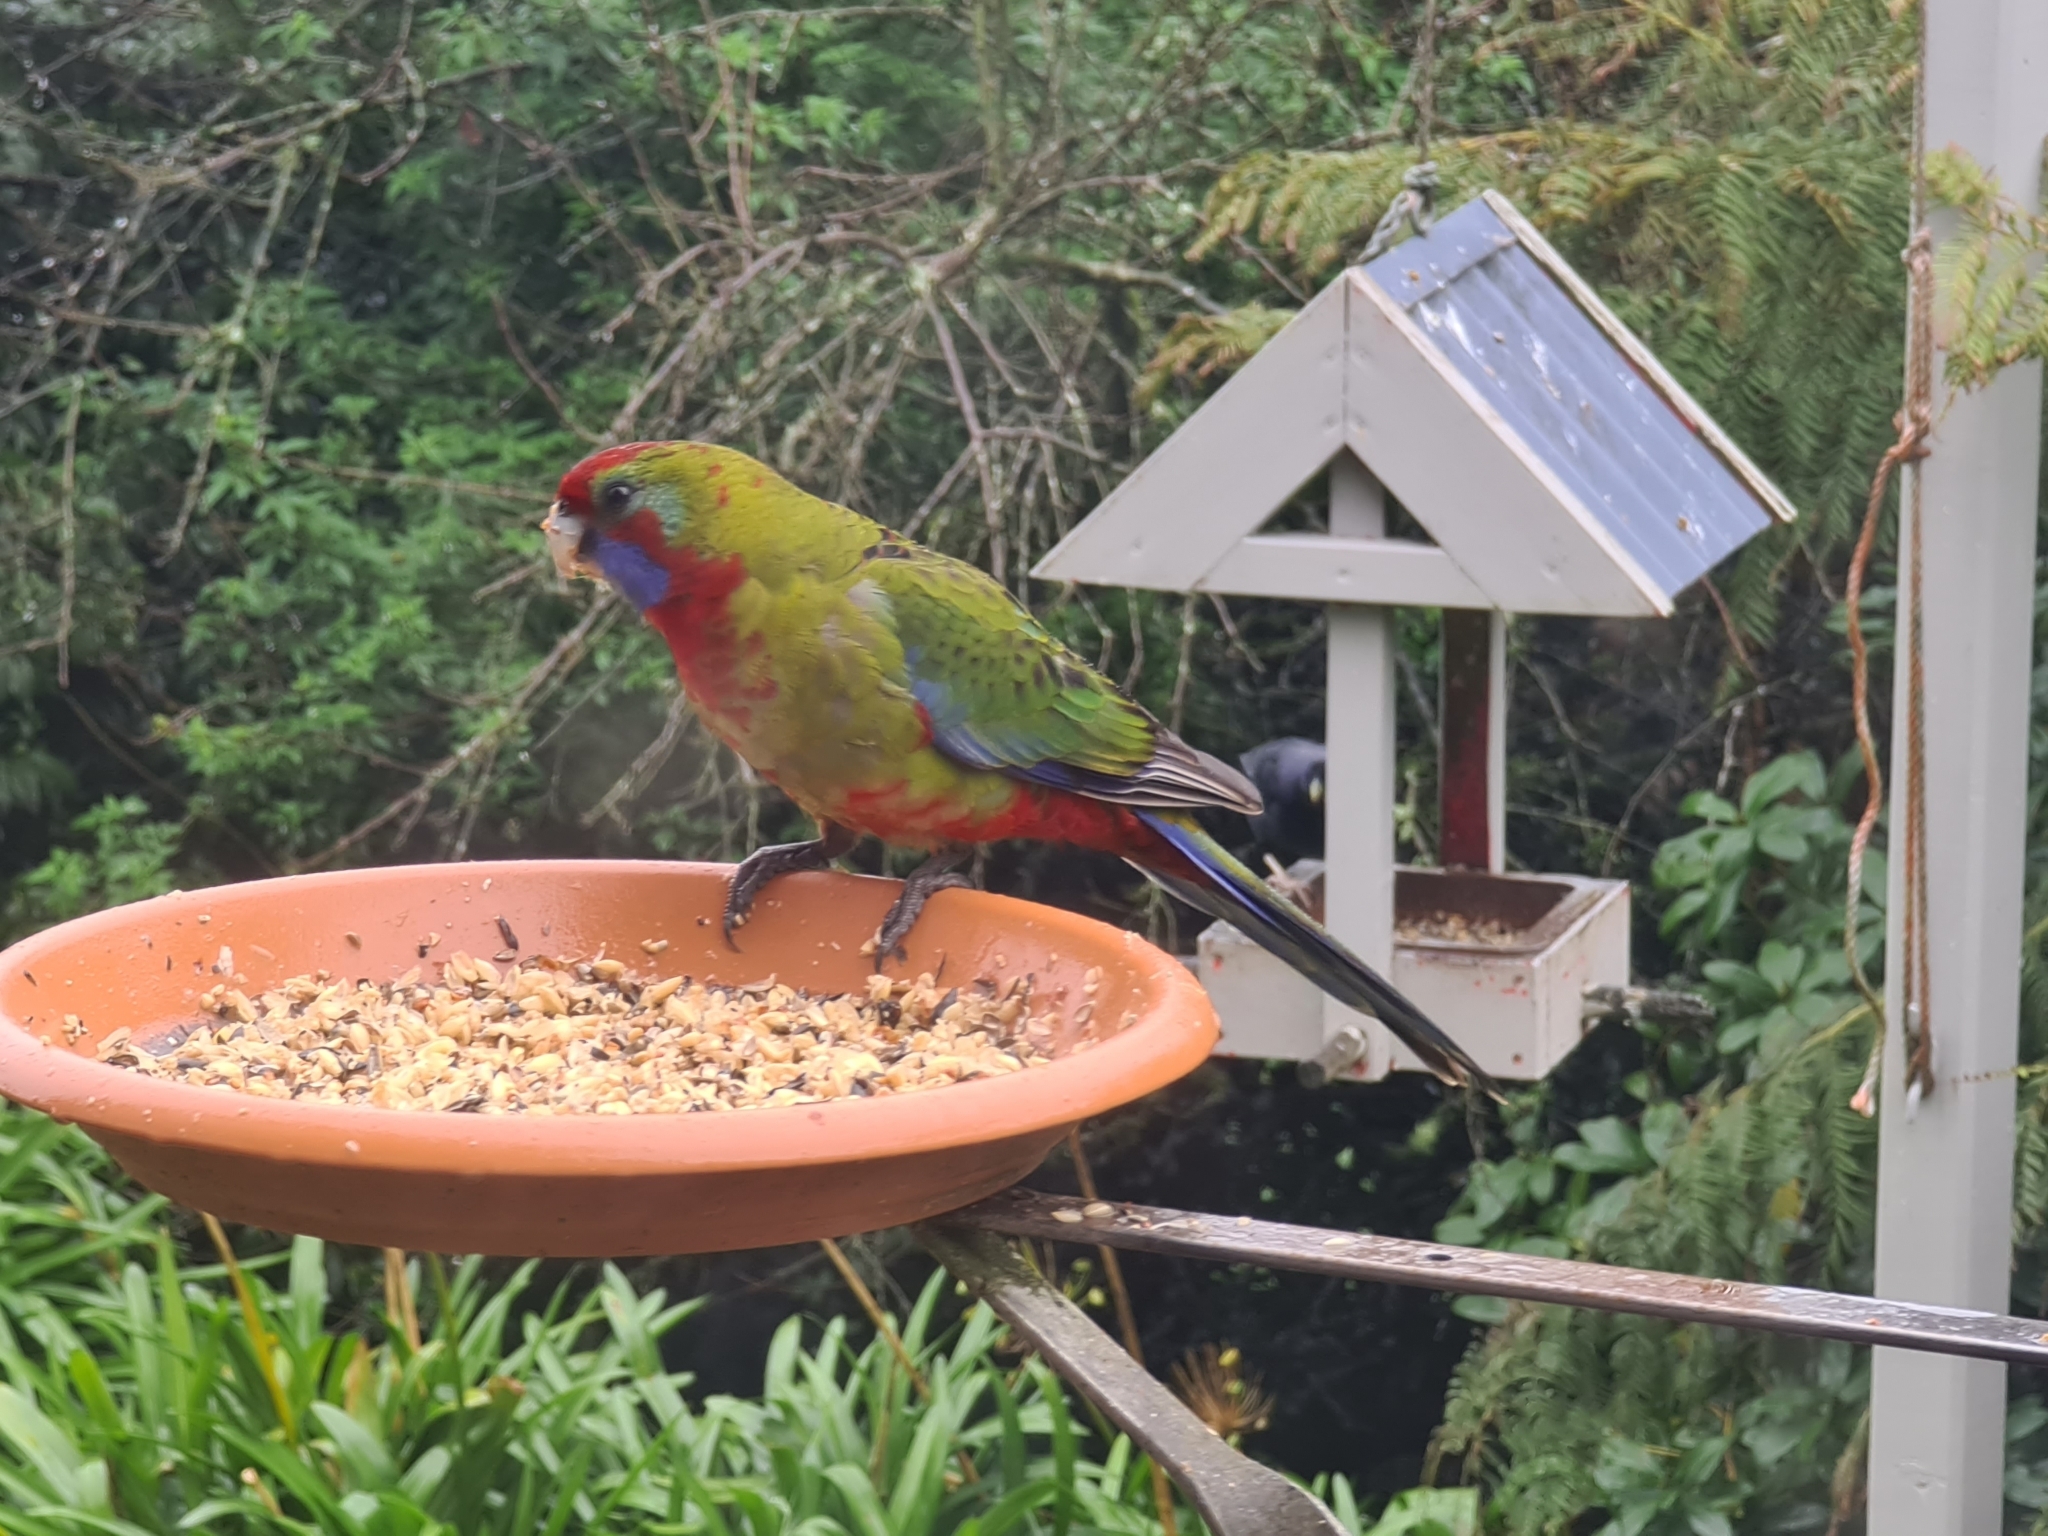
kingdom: Animalia
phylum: Chordata
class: Aves
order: Psittaciformes
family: Psittacidae
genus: Platycercus
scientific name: Platycercus elegans
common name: Crimson rosella
